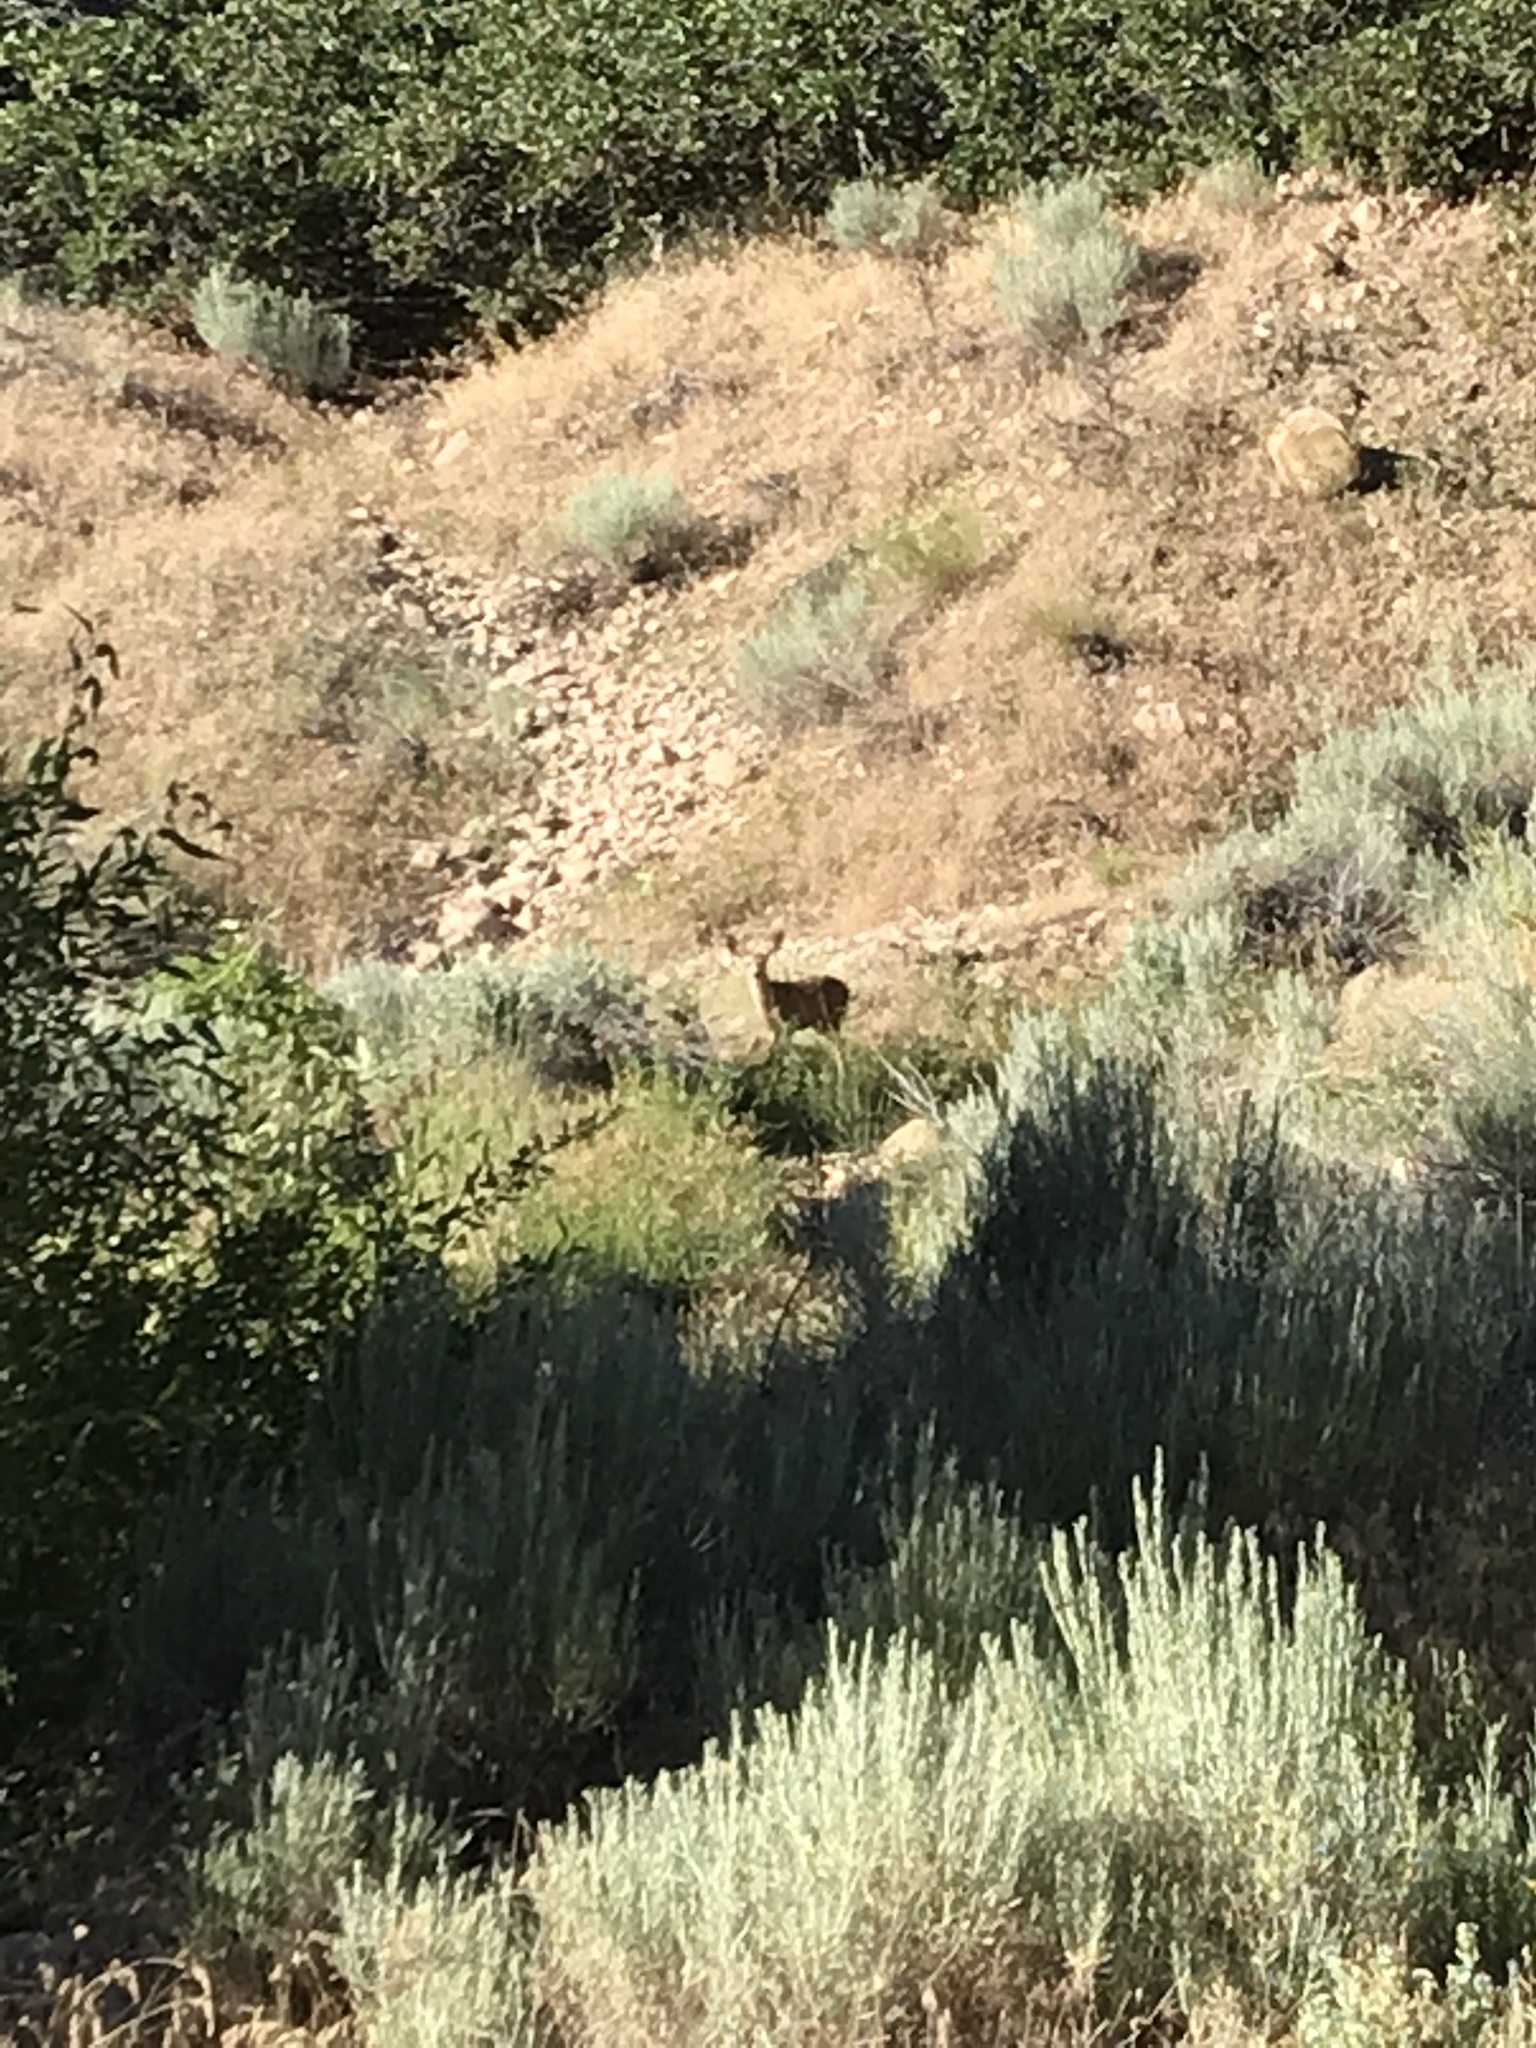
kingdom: Animalia
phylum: Chordata
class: Mammalia
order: Artiodactyla
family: Cervidae
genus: Odocoileus
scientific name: Odocoileus hemionus
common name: Mule deer
